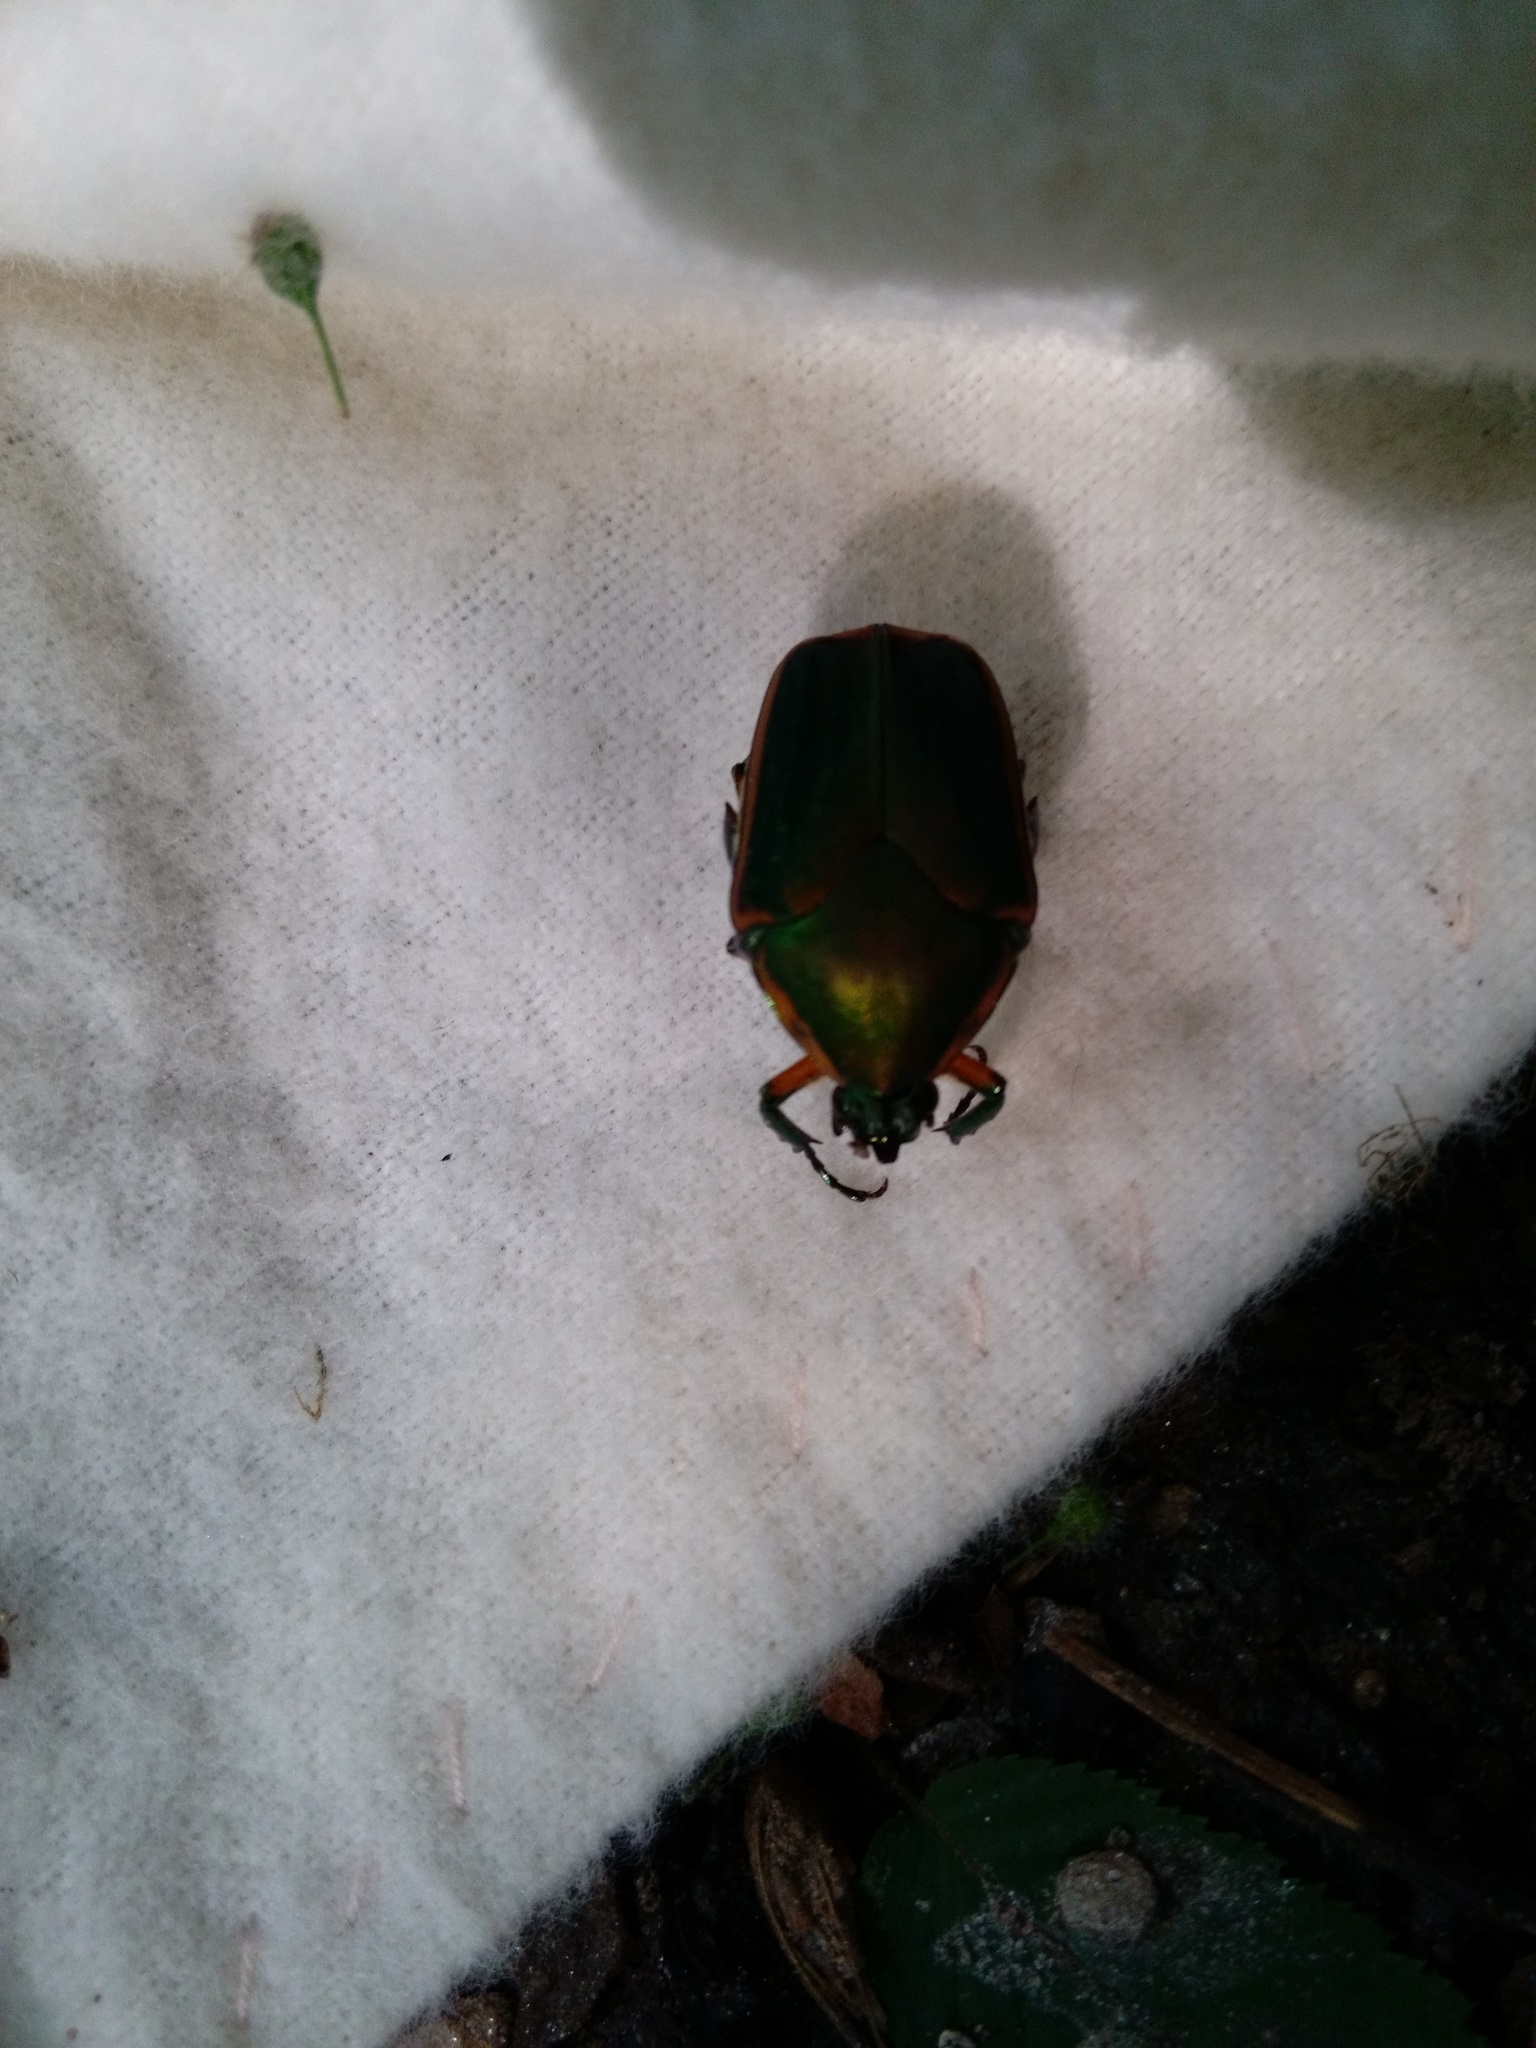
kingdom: Animalia
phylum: Arthropoda
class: Insecta
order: Coleoptera
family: Scarabaeidae
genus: Cotinis
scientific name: Cotinis nitida
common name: Common green june beetle
